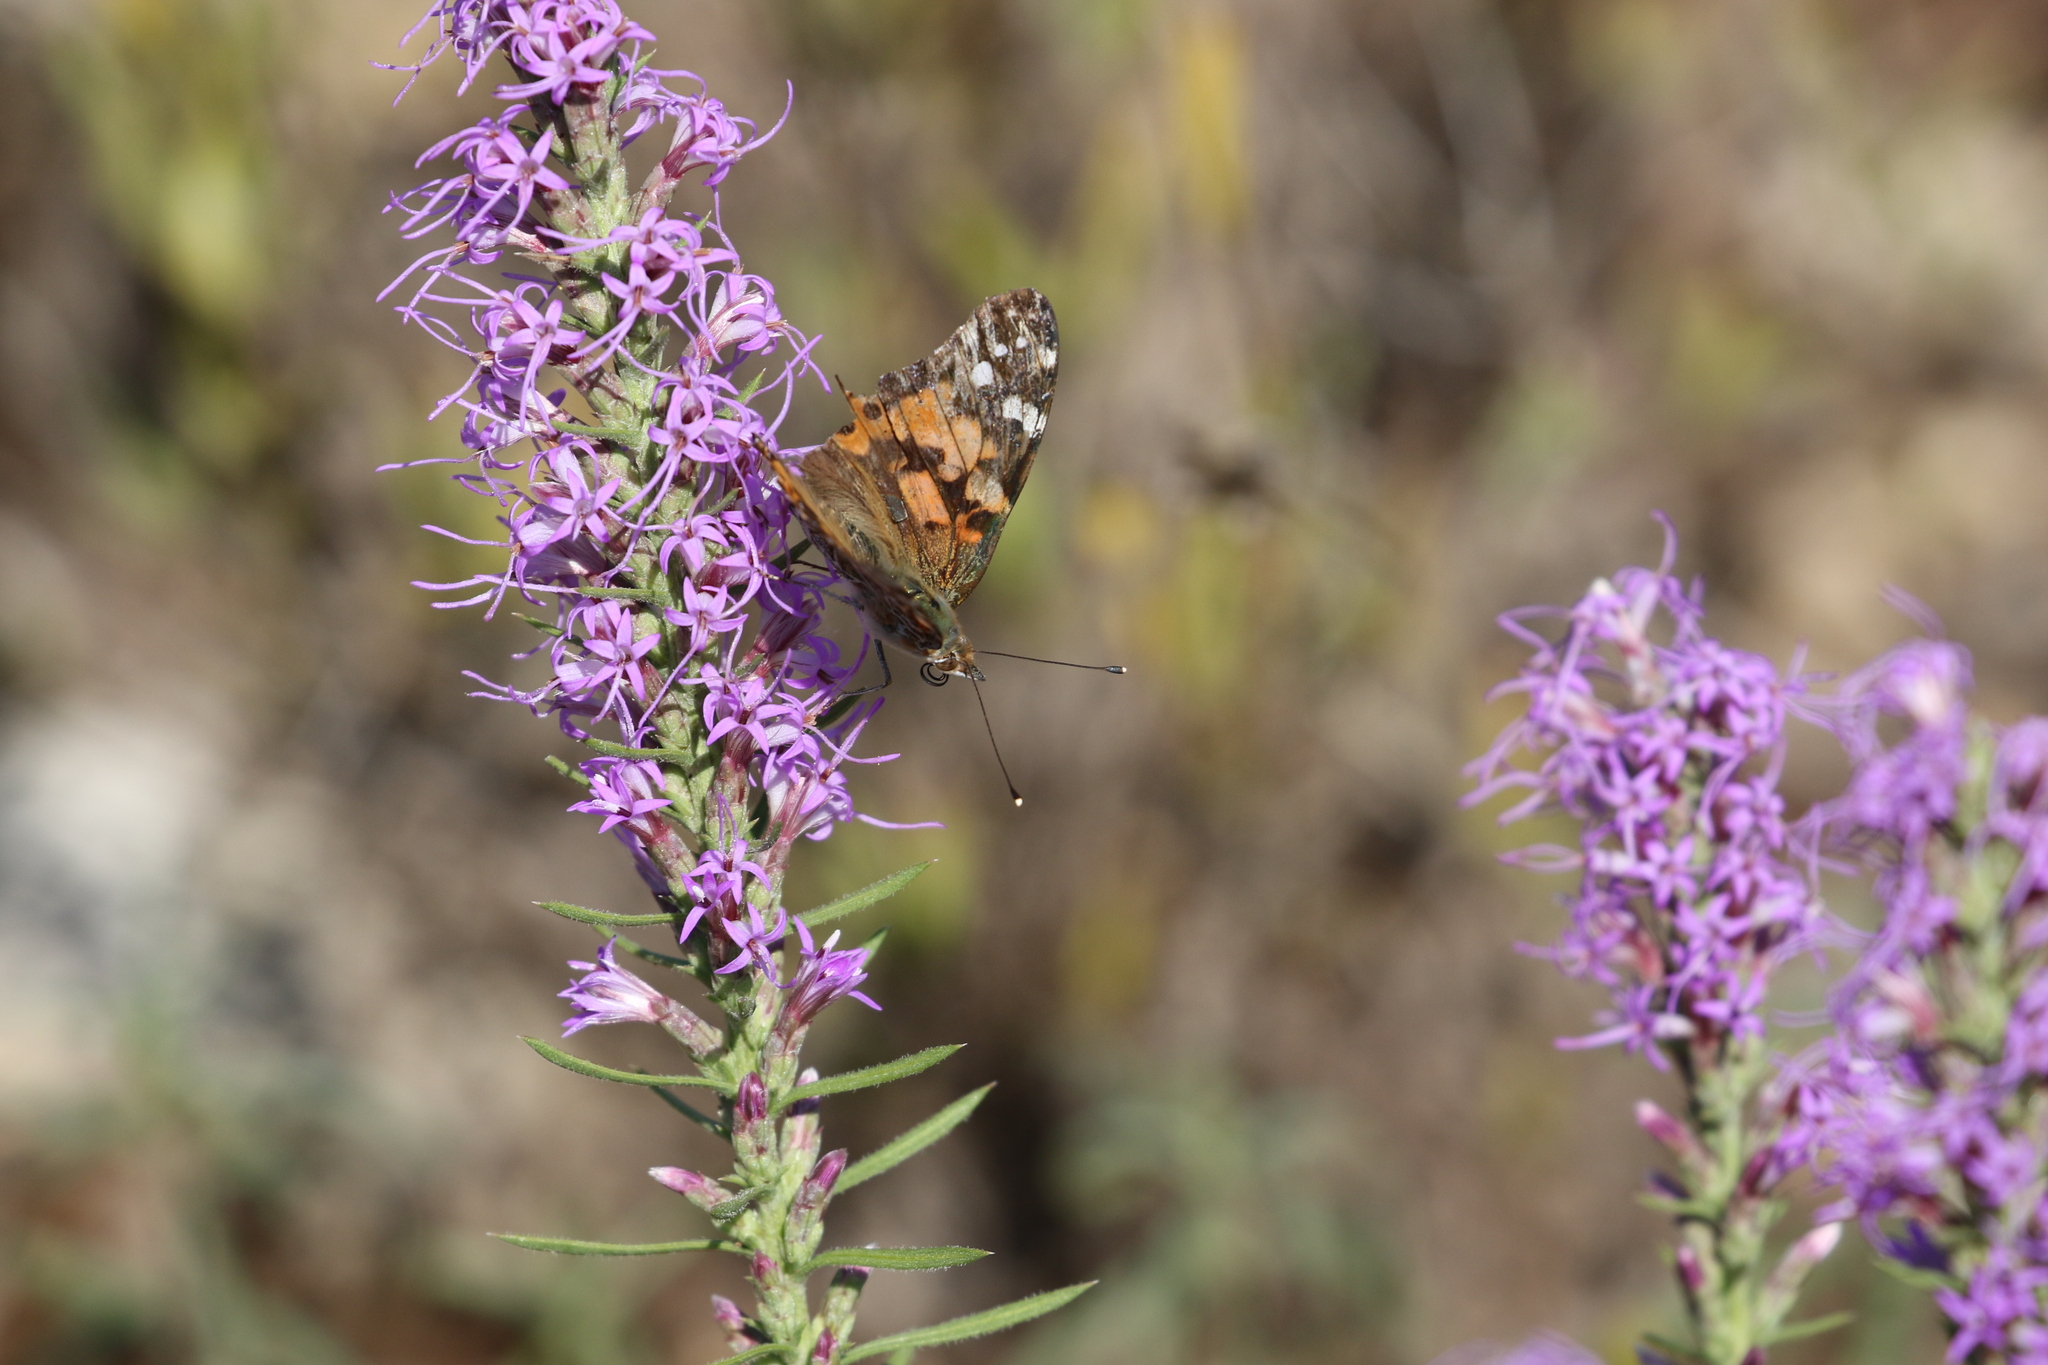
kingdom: Animalia
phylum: Arthropoda
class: Insecta
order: Lepidoptera
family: Nymphalidae
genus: Vanessa
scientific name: Vanessa cardui
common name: Painted lady
